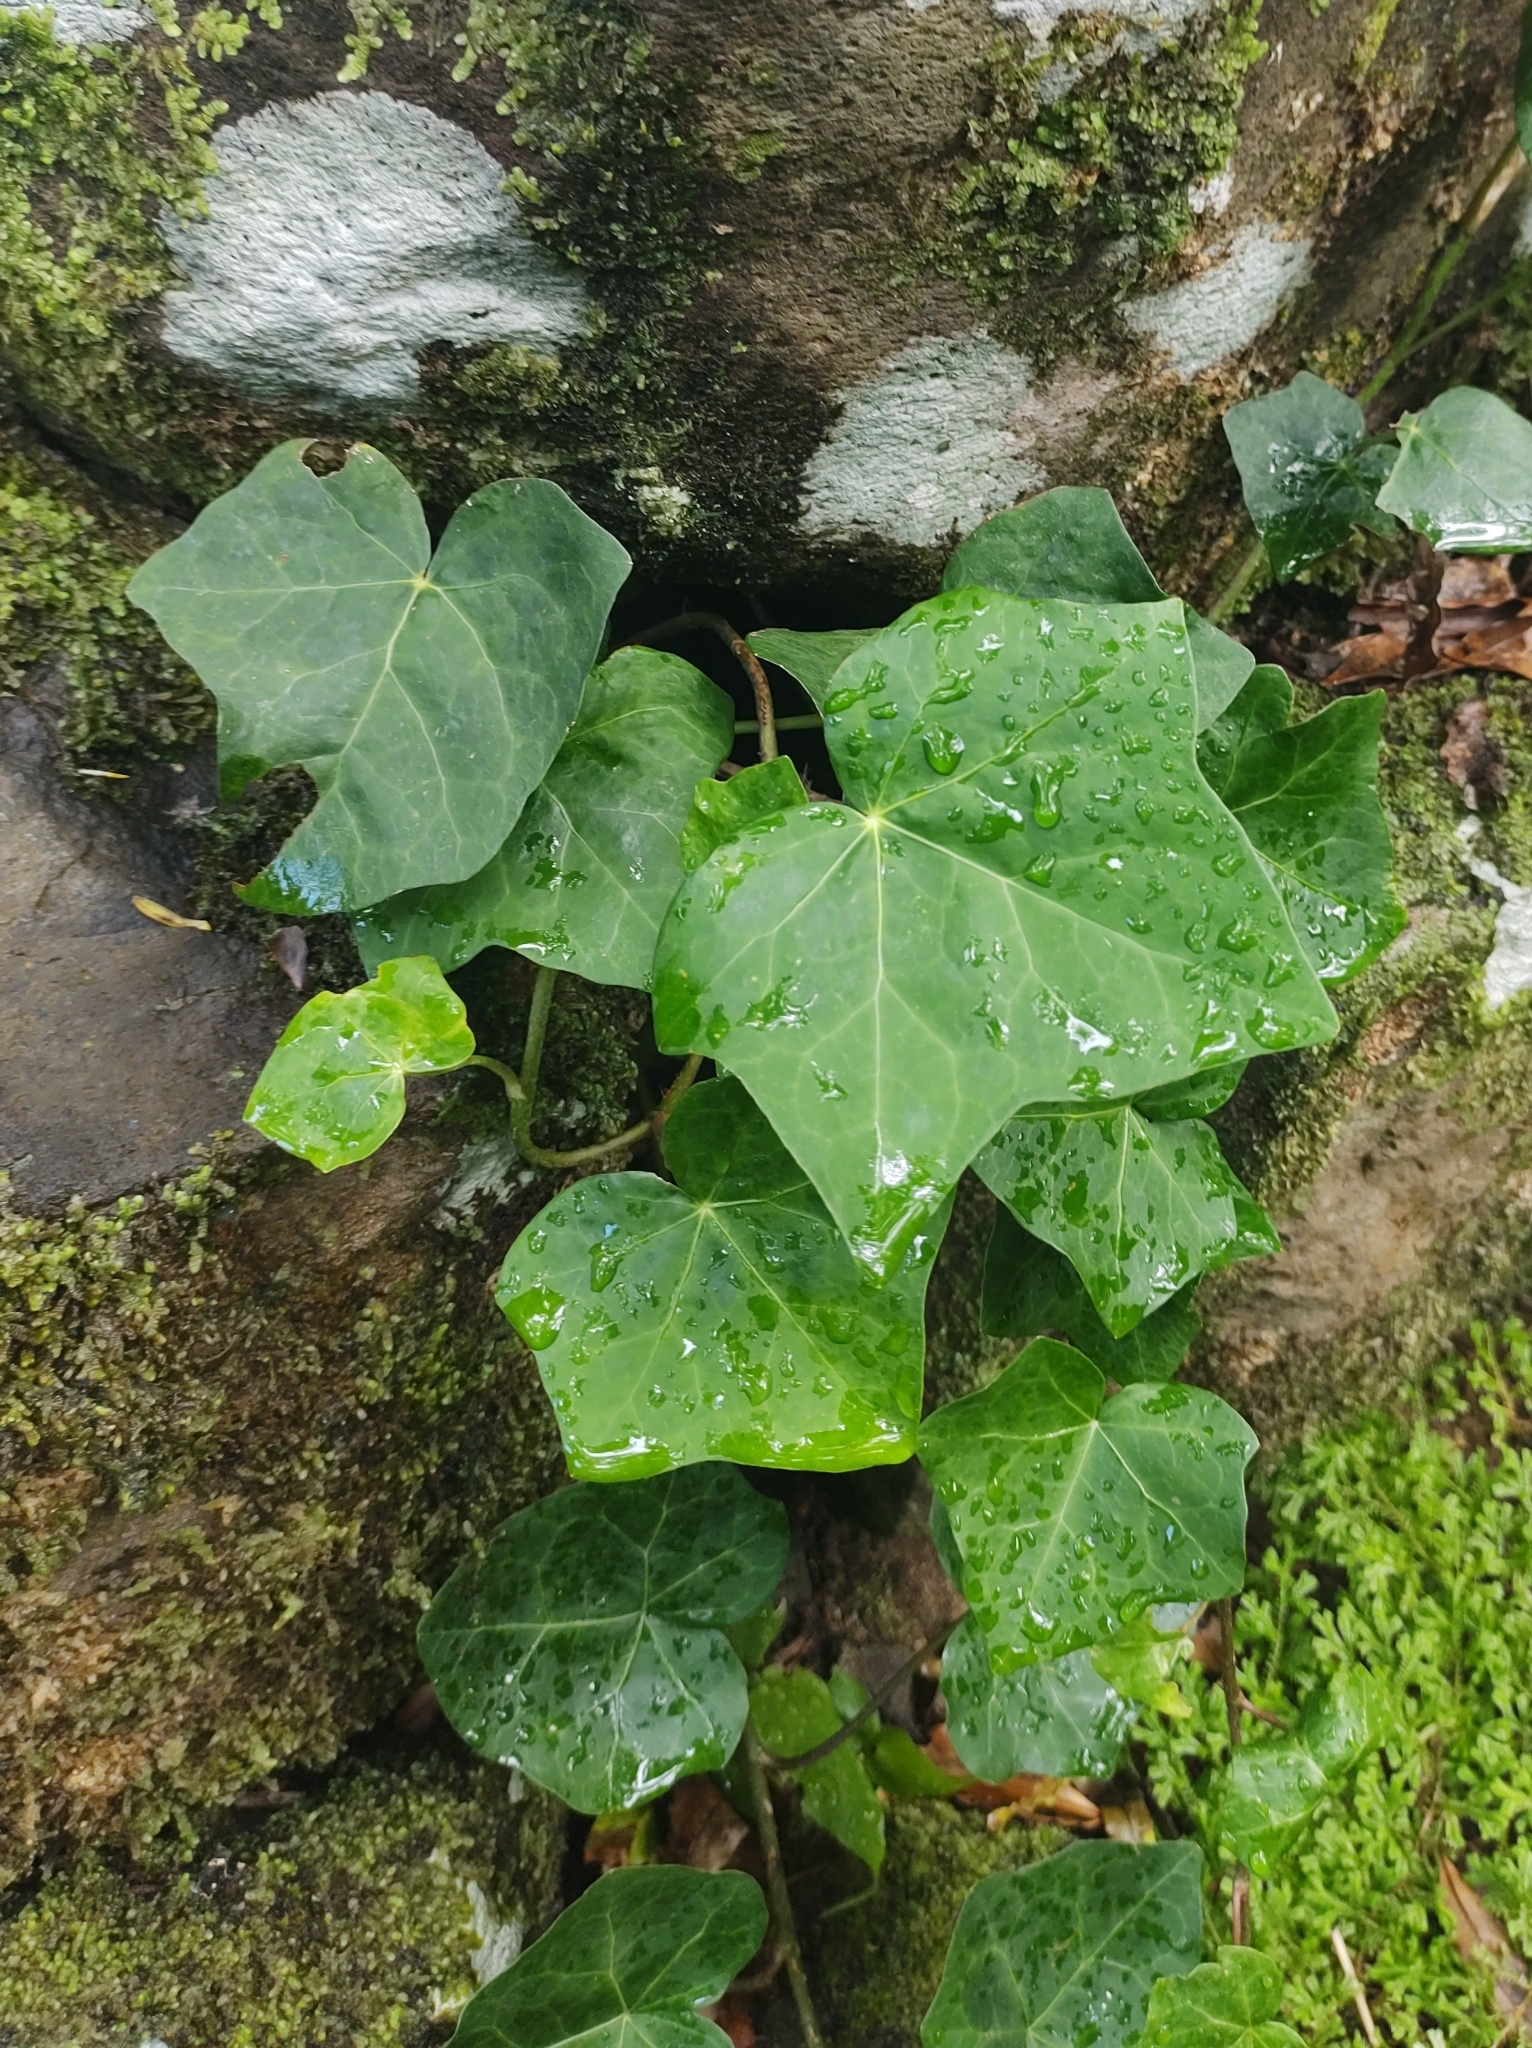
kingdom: Plantae
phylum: Tracheophyta
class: Magnoliopsida
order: Apiales
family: Araliaceae
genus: Hedera
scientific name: Hedera azorica
